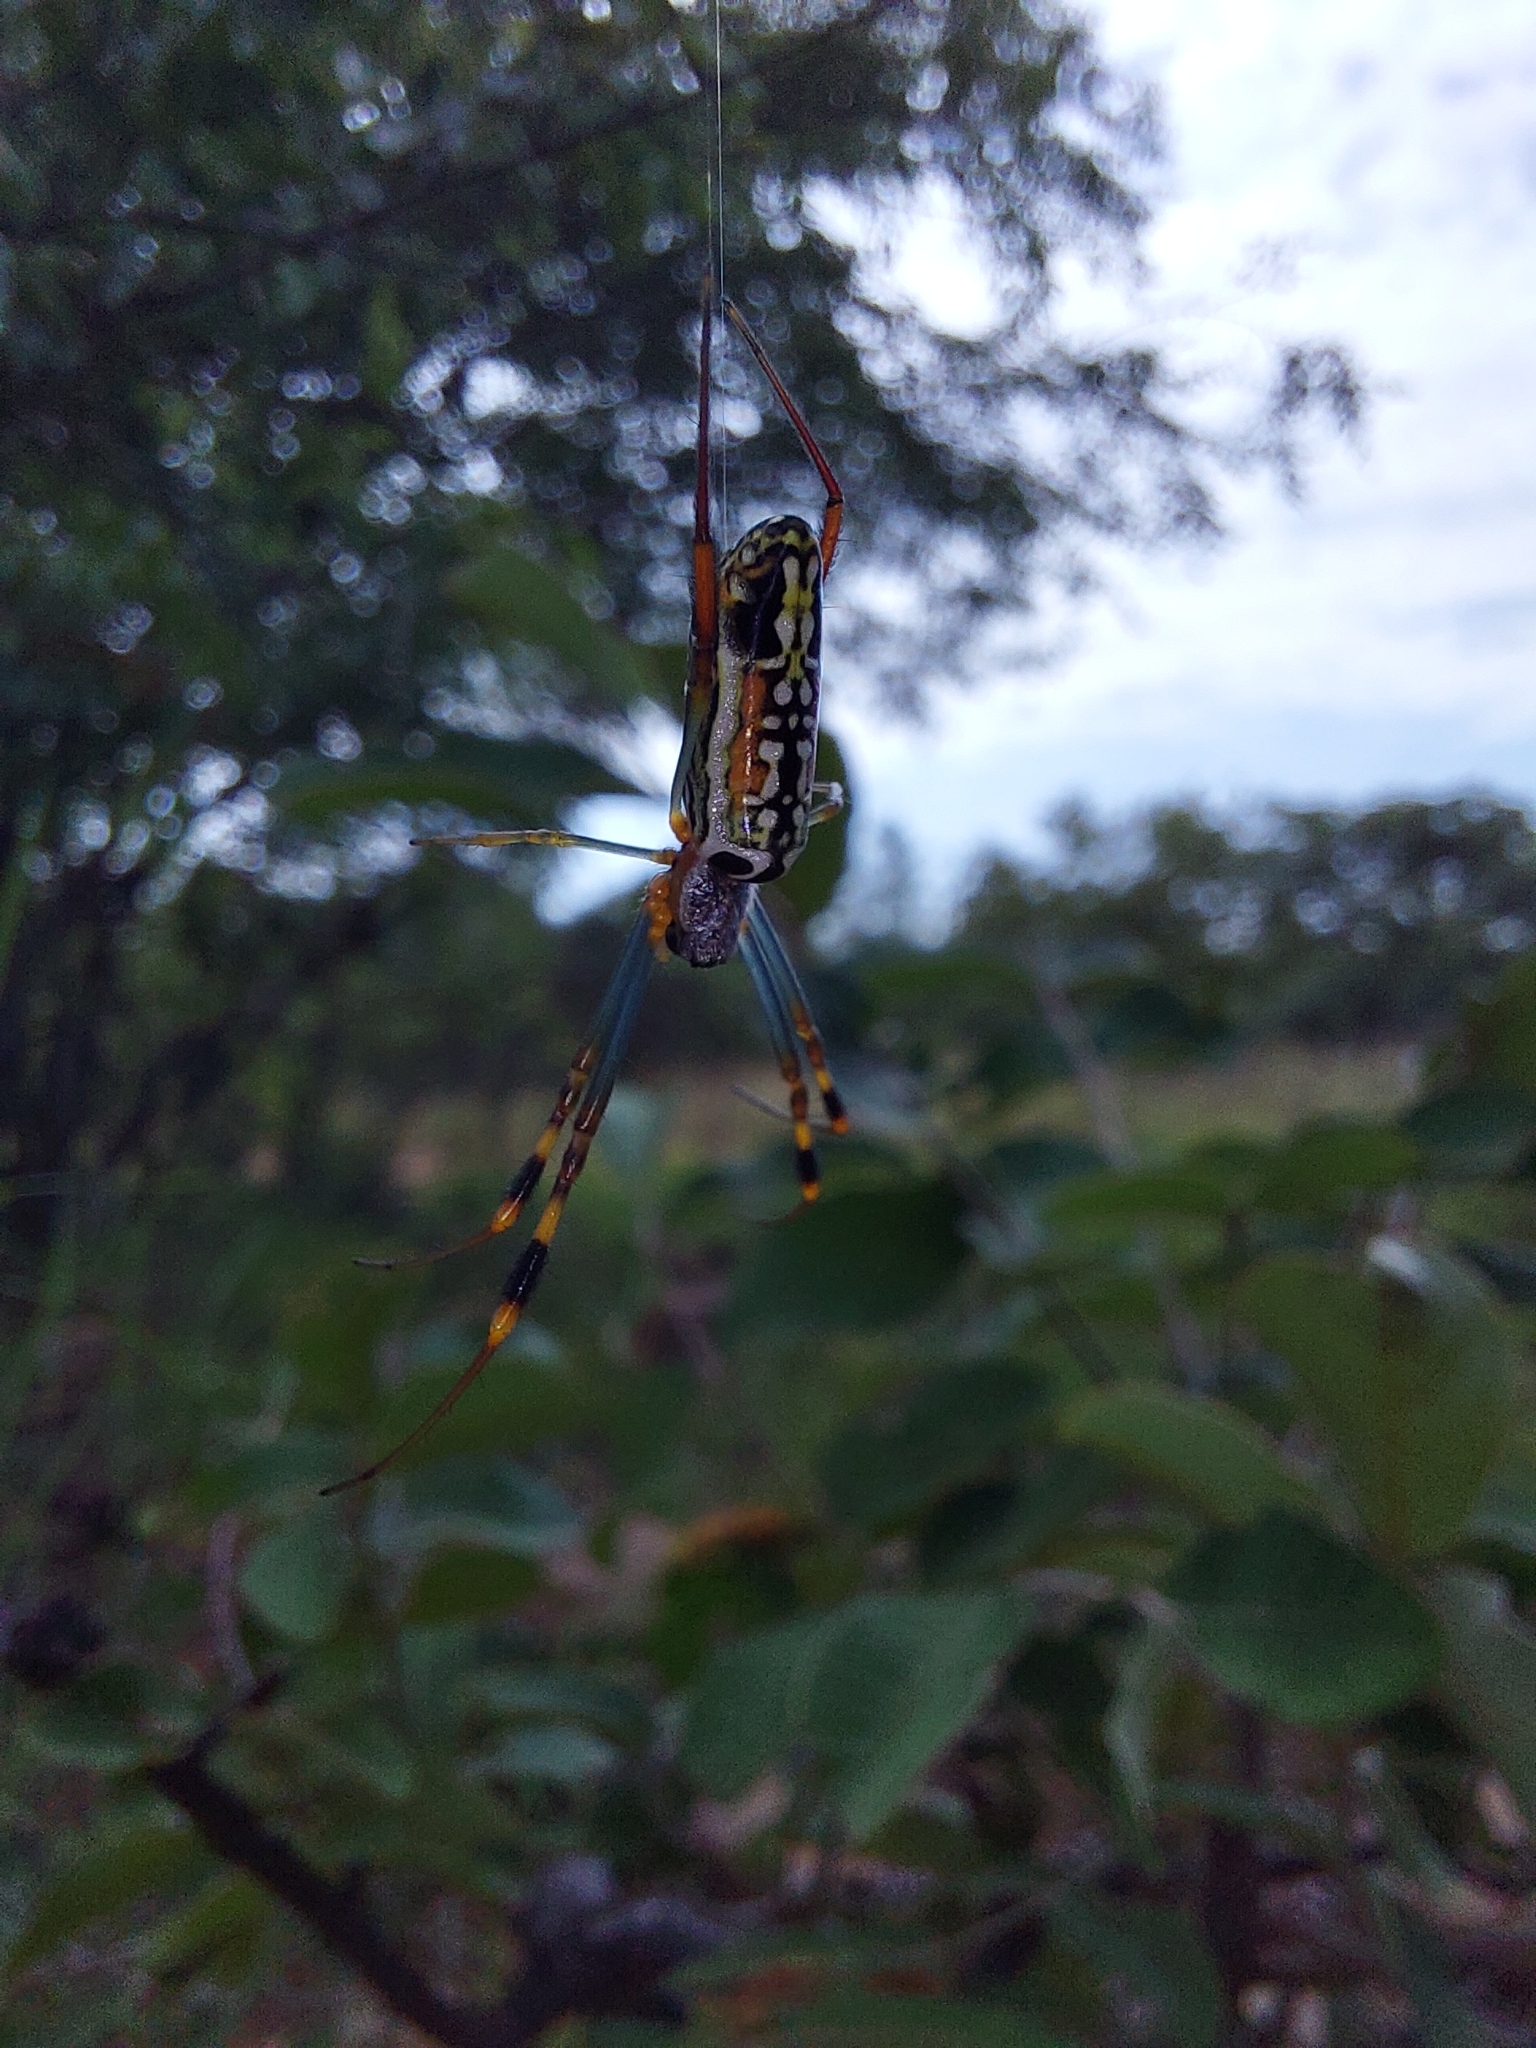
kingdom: Animalia
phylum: Arthropoda
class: Arachnida
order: Araneae
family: Araneidae
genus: Trichonephila
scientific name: Trichonephila senegalensis
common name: Banded golden orb weaver
